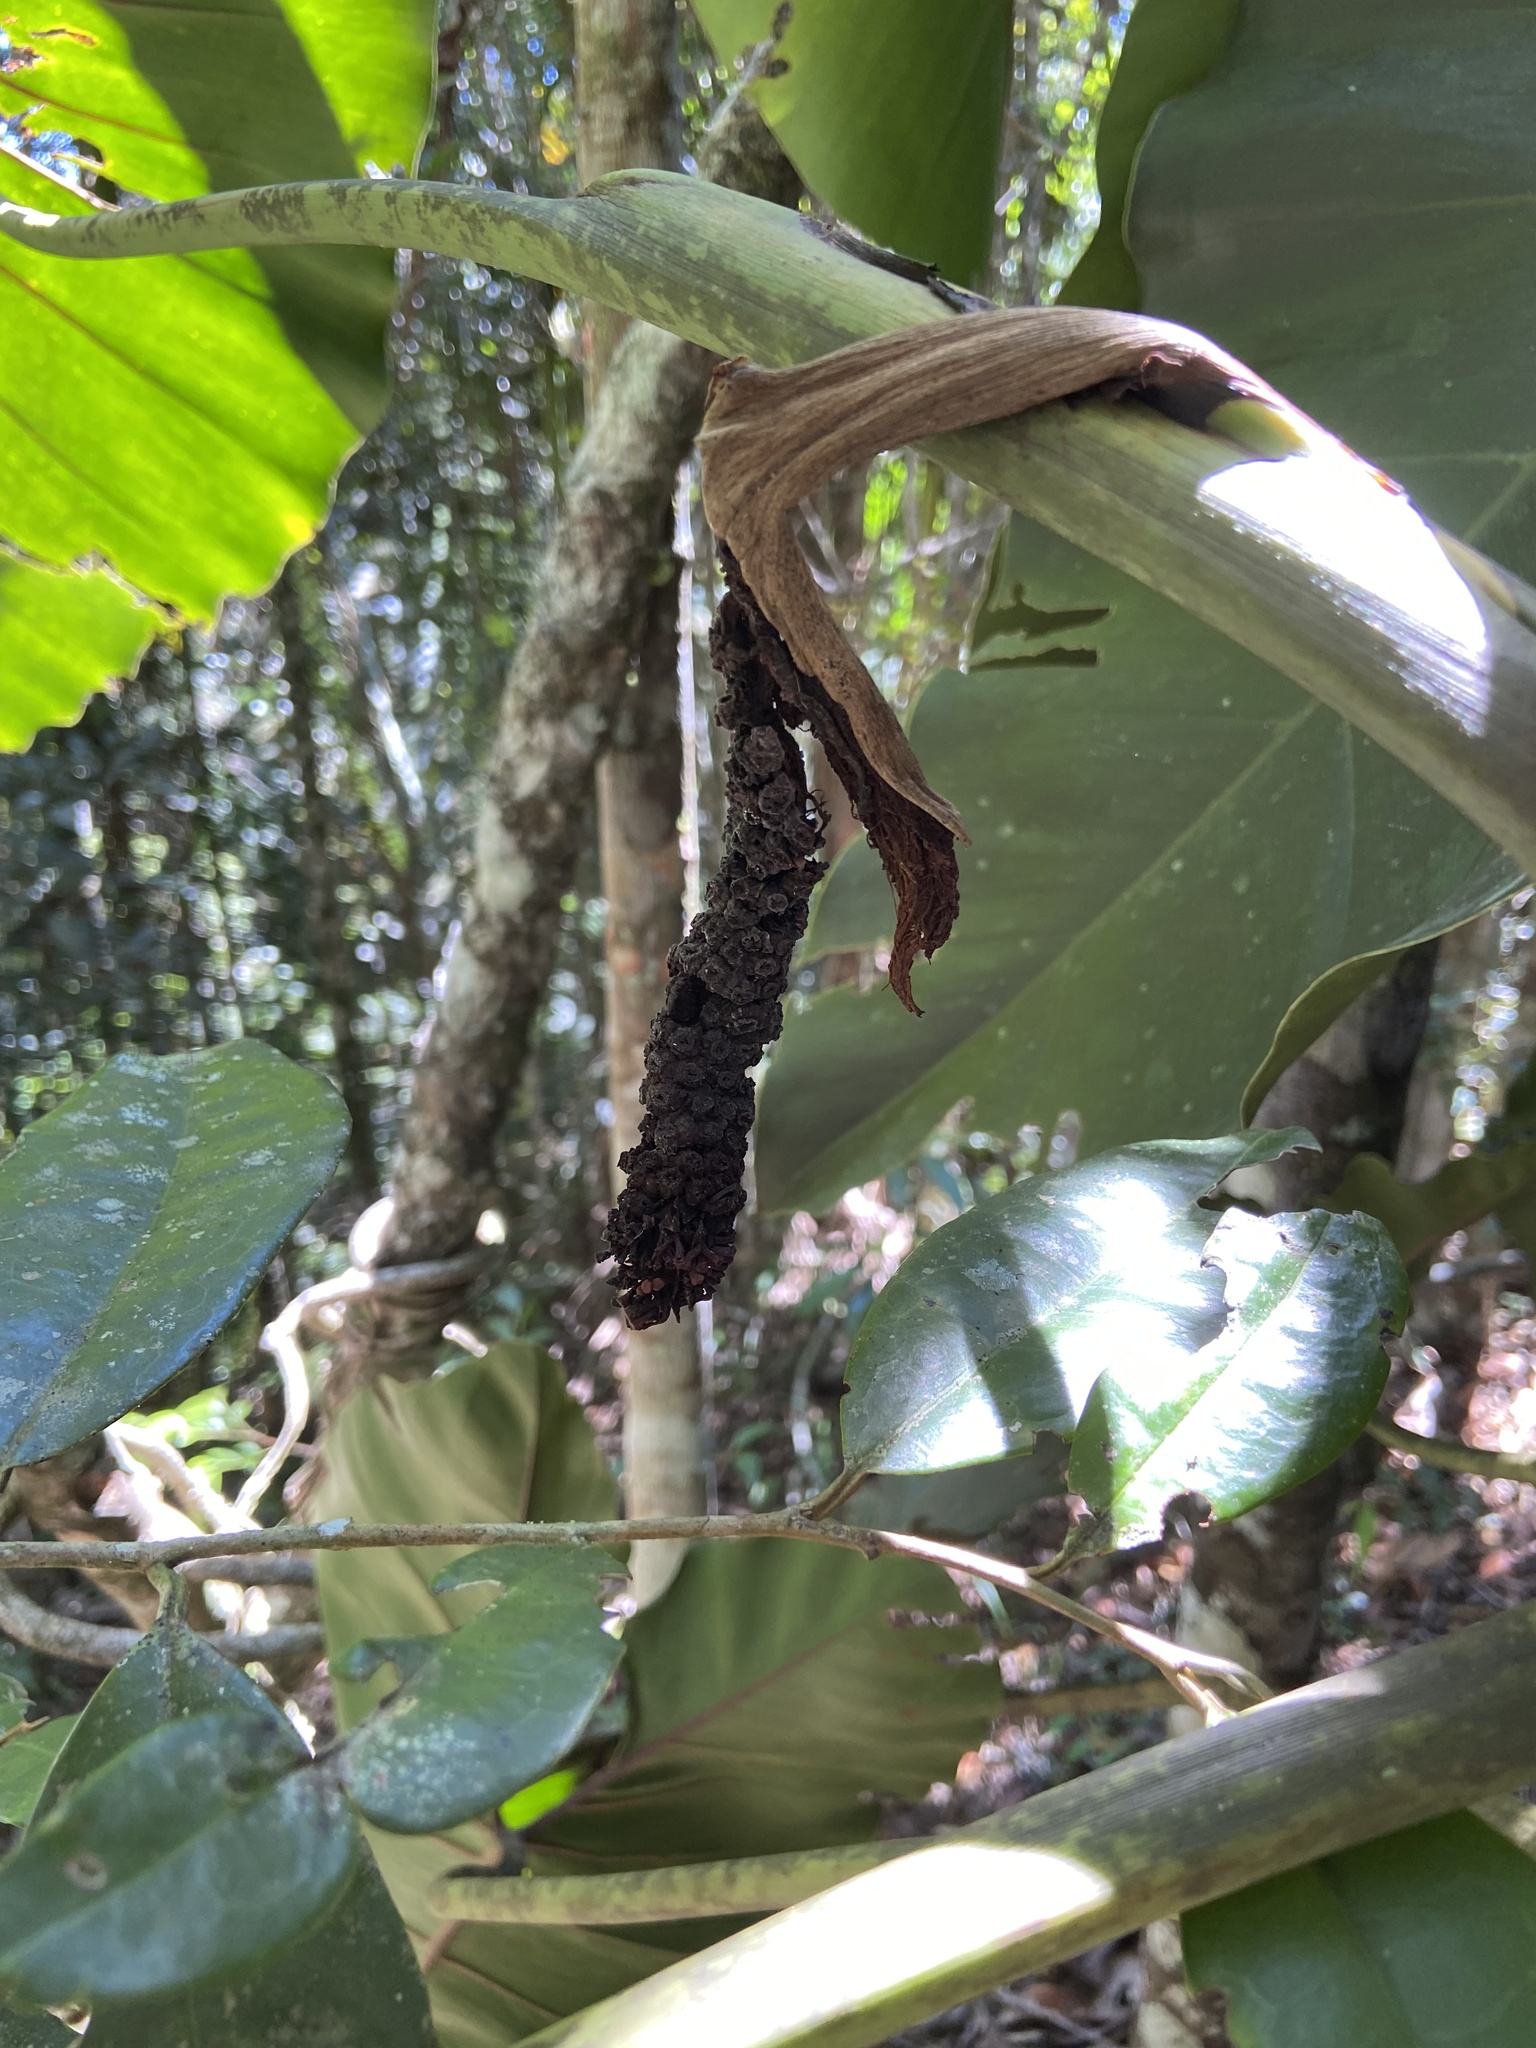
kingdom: Plantae
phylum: Tracheophyta
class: Liliopsida
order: Alismatales
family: Araceae
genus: Thaumatophyllum
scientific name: Thaumatophyllum corcovadense
